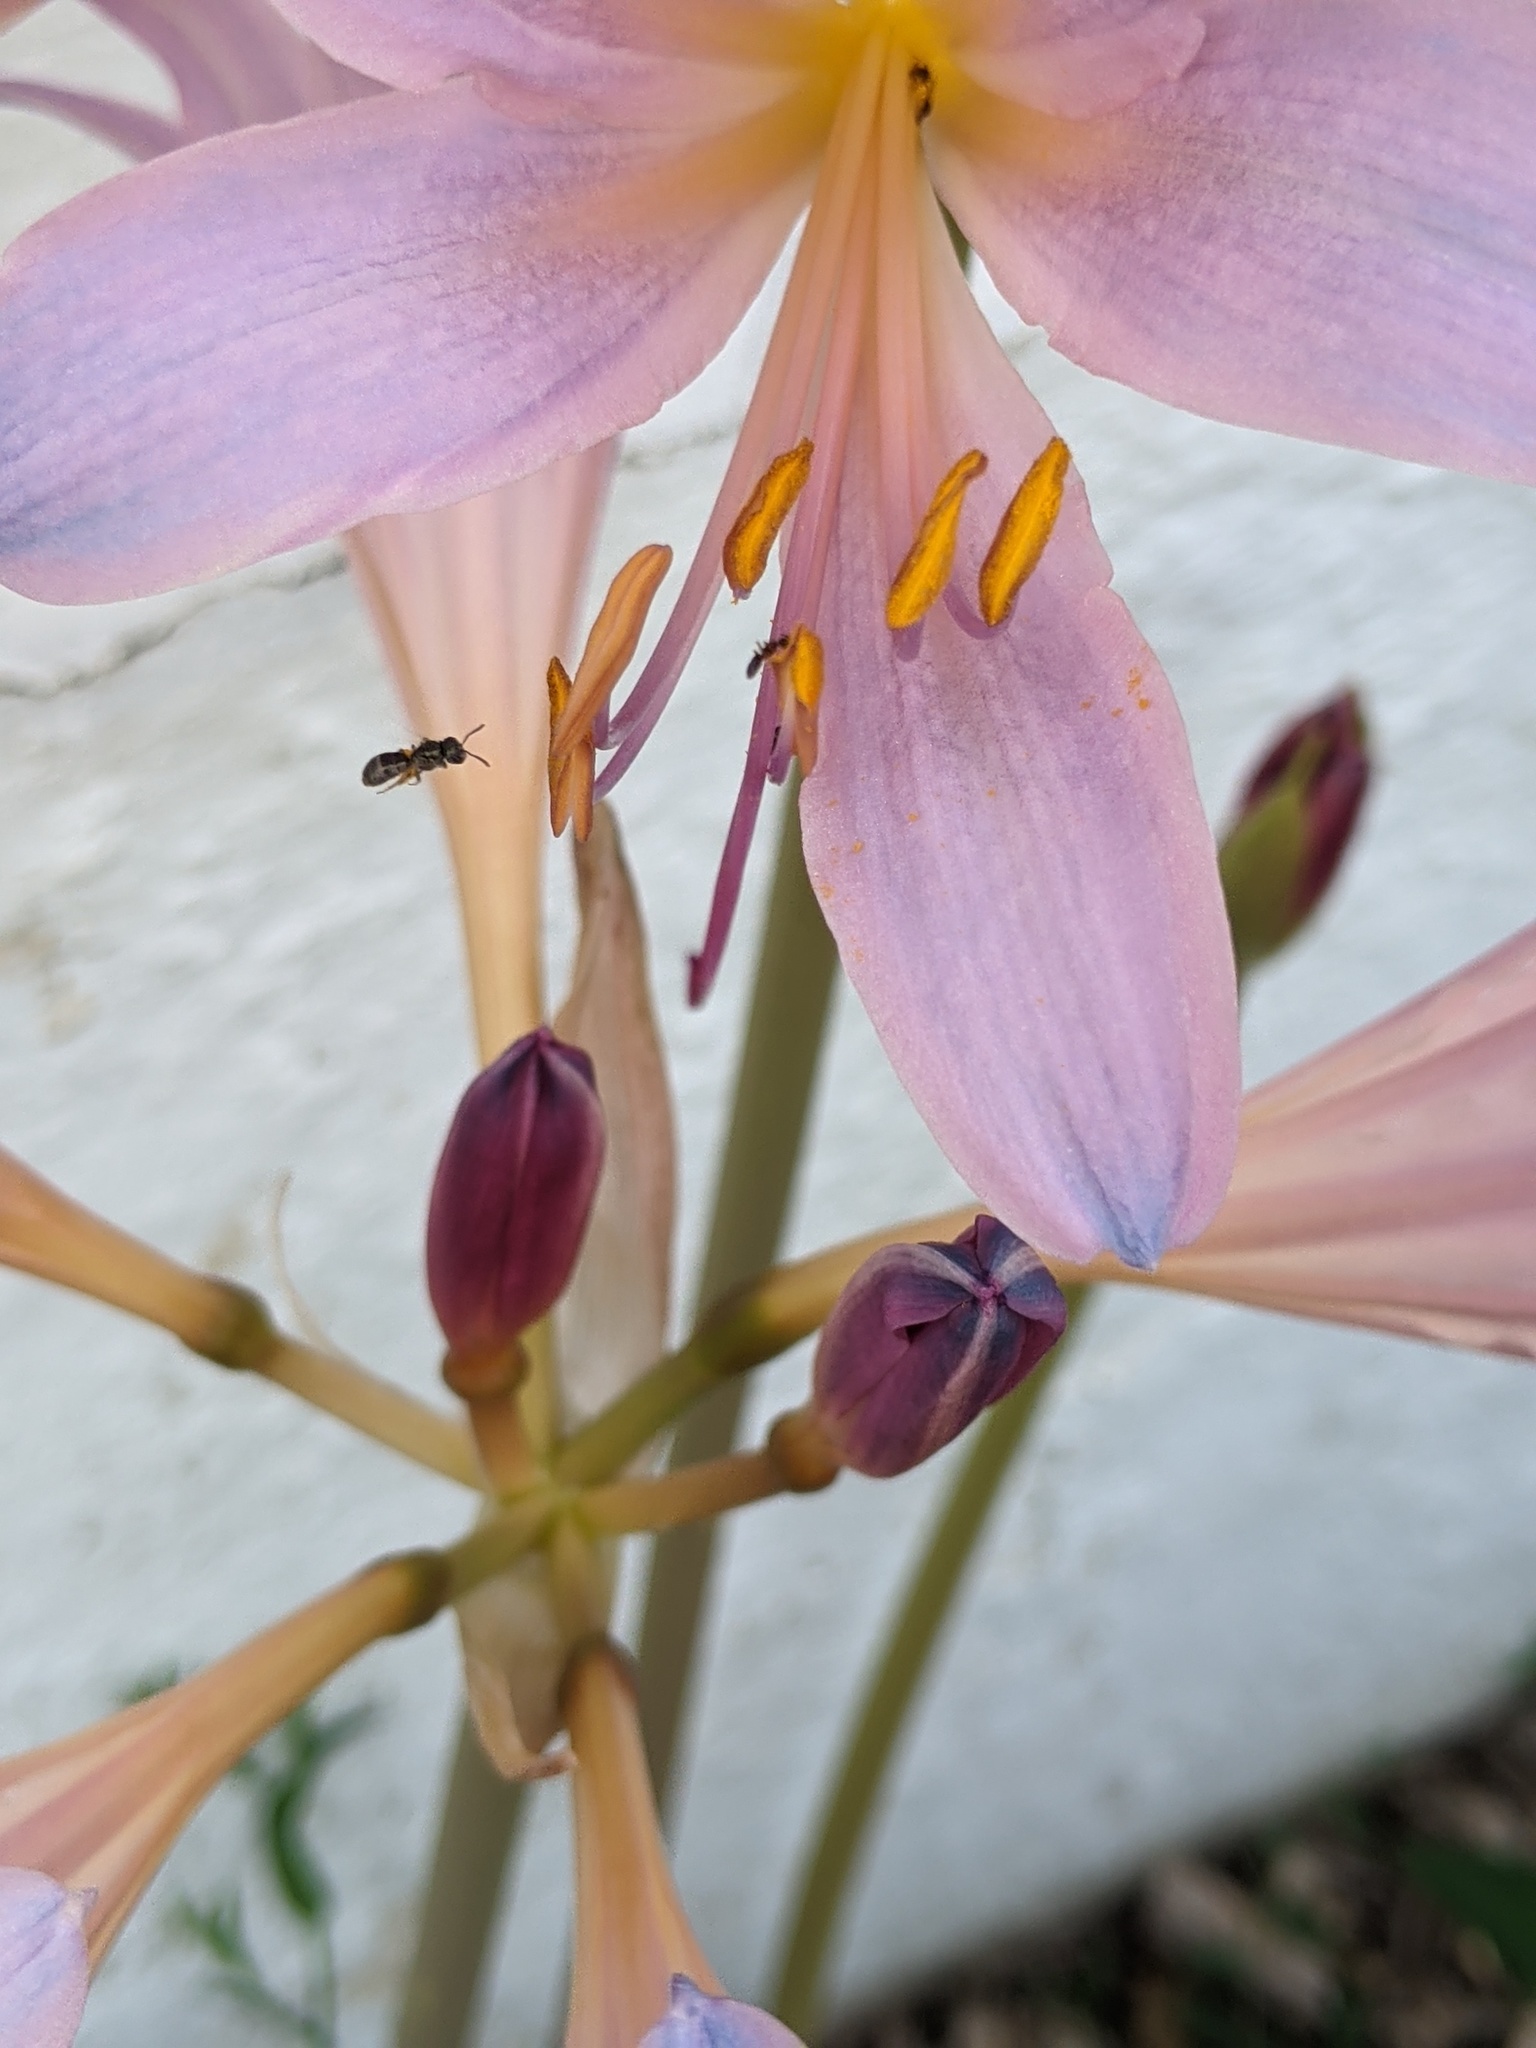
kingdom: Animalia
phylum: Arthropoda
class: Insecta
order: Hymenoptera
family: Halictidae
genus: Dialictus
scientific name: Dialictus
